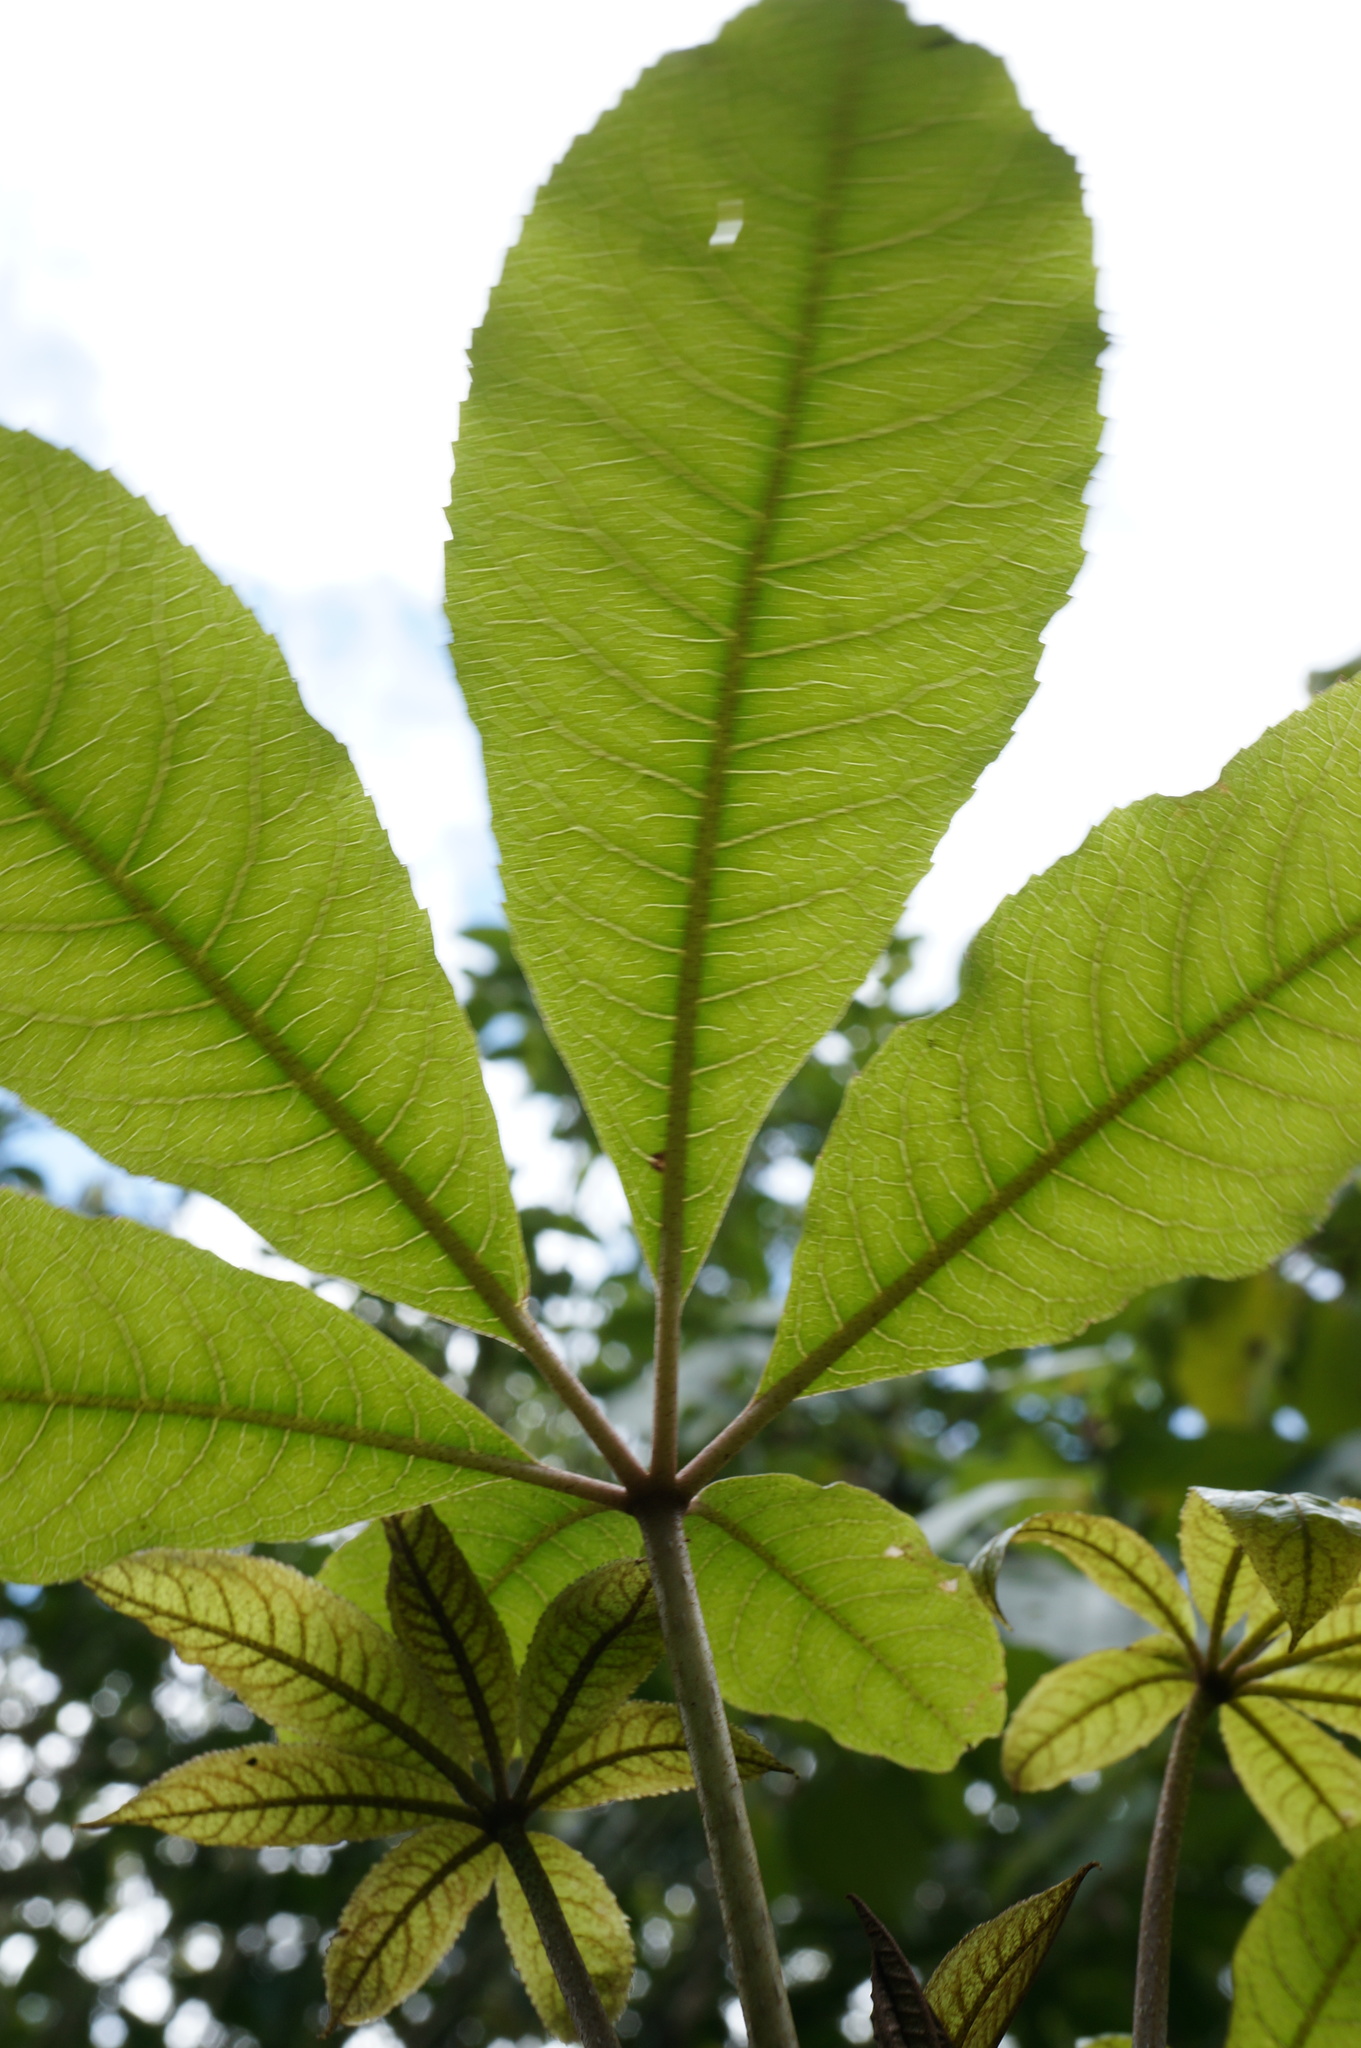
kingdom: Plantae
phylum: Tracheophyta
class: Magnoliopsida
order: Apiales
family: Araliaceae
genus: Schefflera
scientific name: Schefflera digitata
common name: Pate
